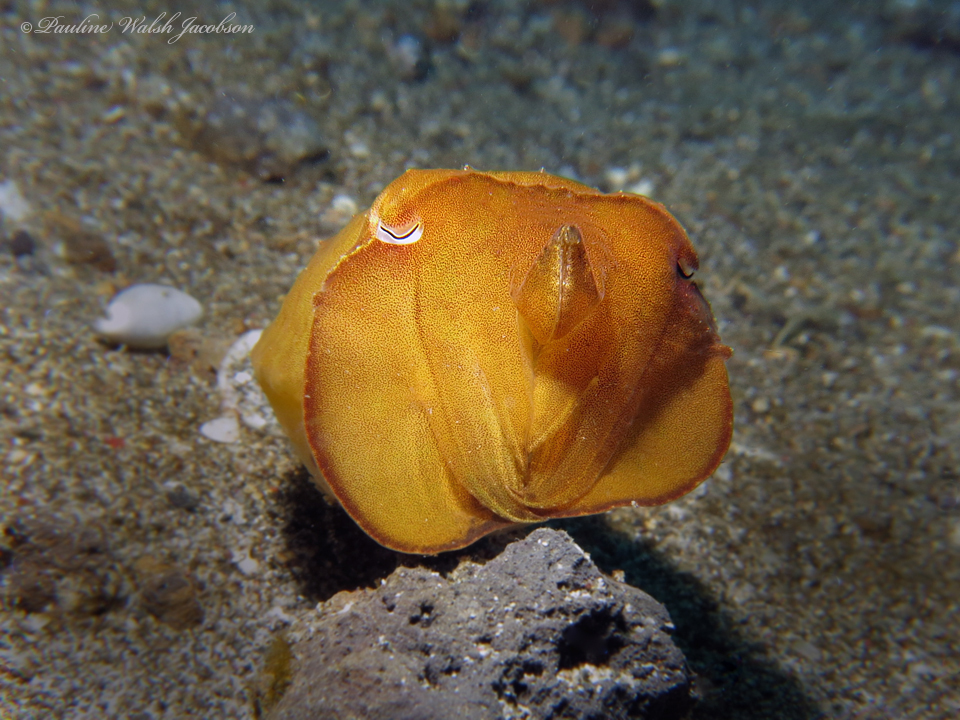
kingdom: Animalia
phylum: Mollusca
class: Cephalopoda
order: Sepiida
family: Sepiidae
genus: Ascarosepion
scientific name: Ascarosepion latimanus
